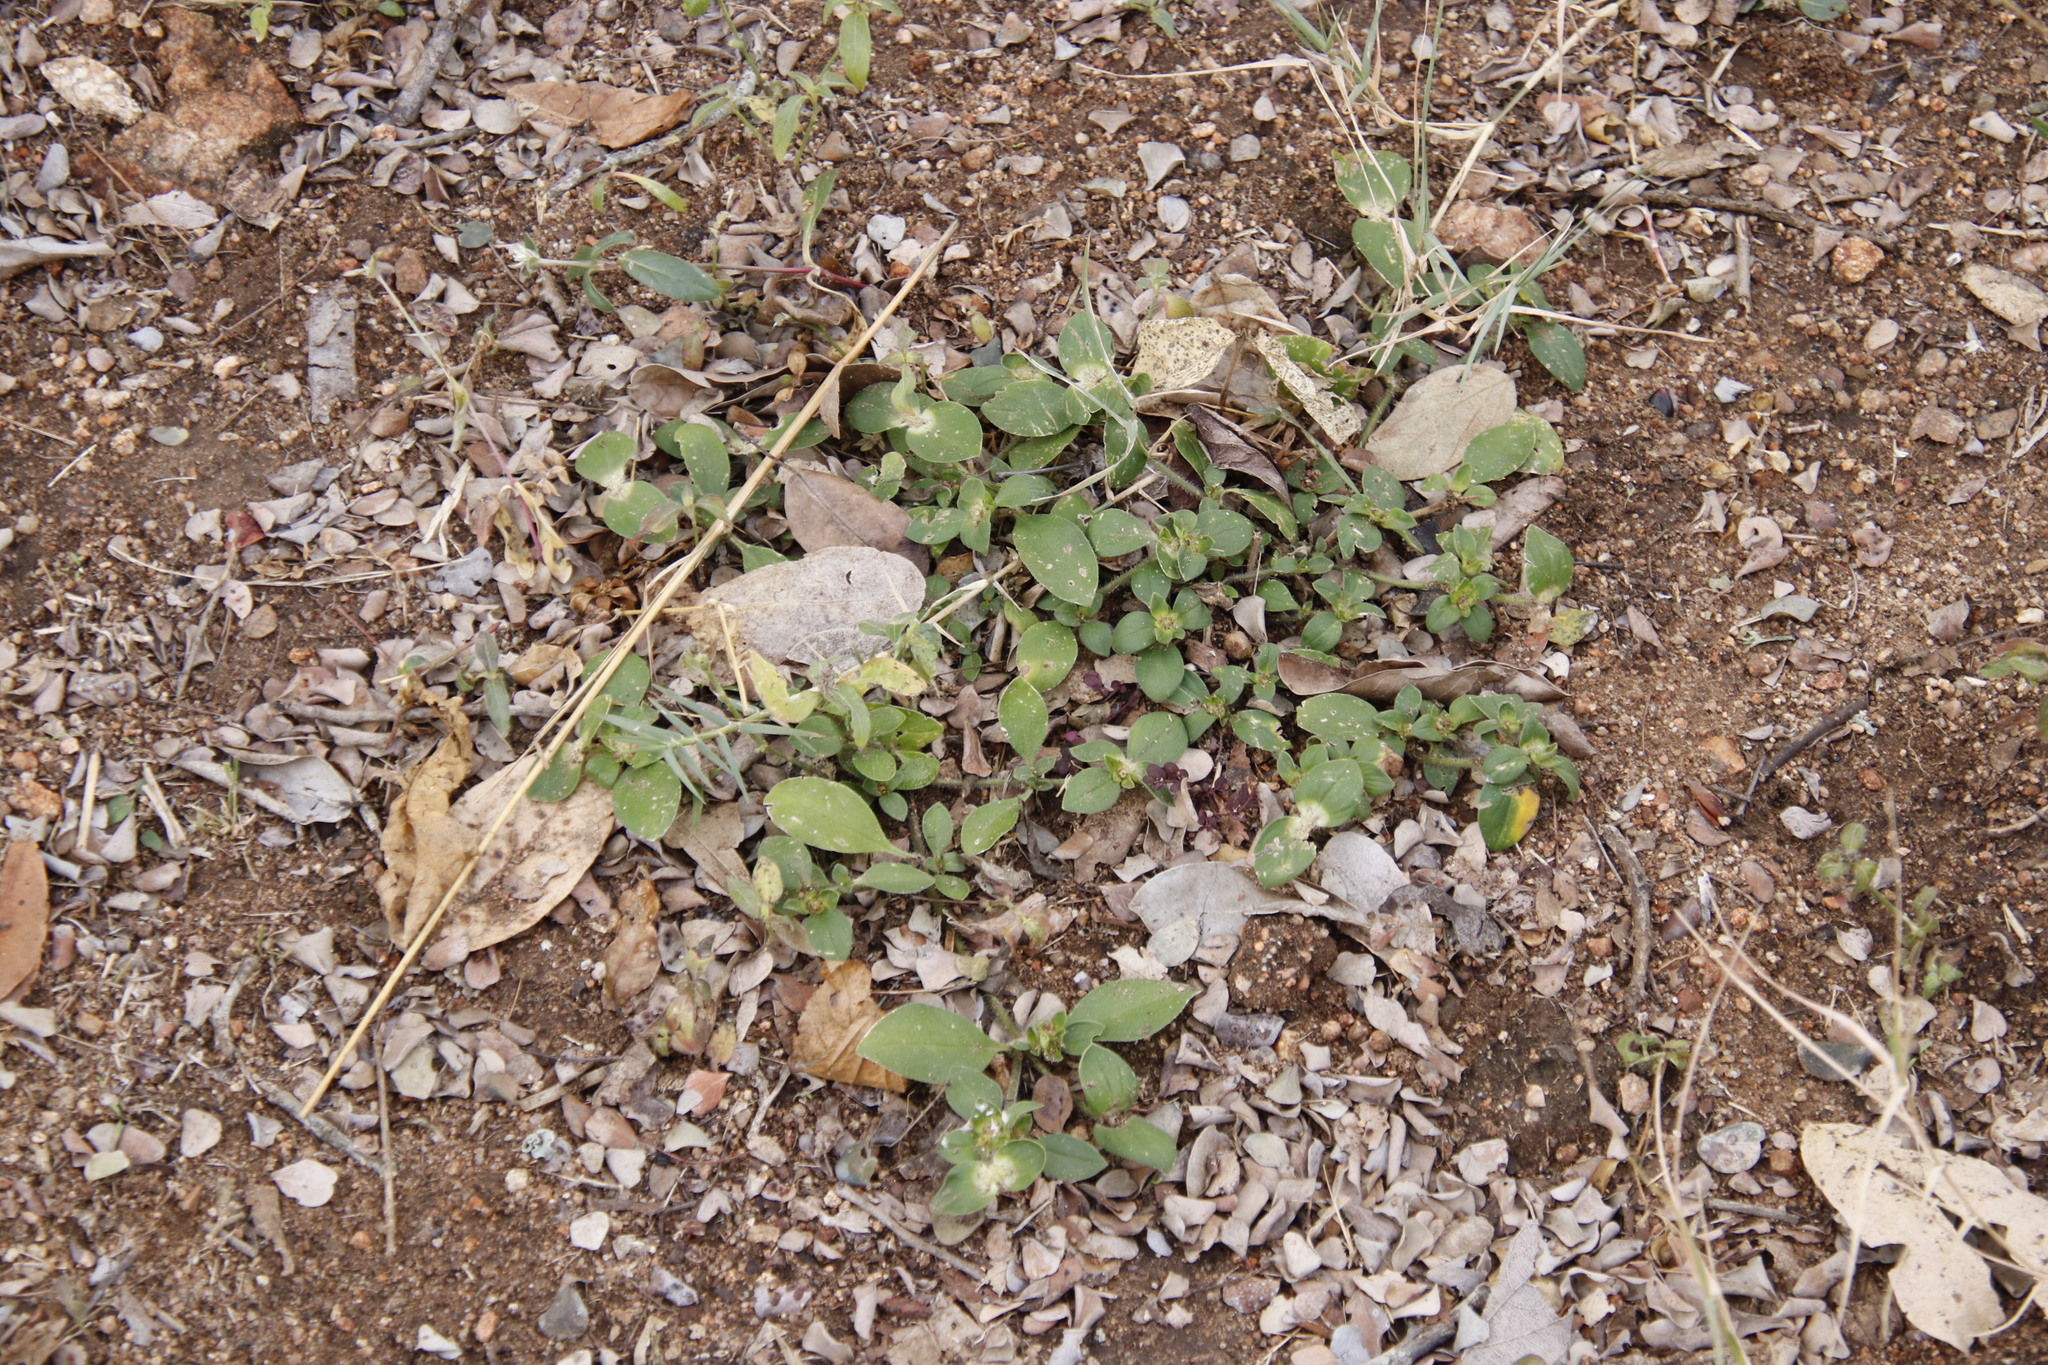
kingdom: Plantae
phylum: Tracheophyta
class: Magnoliopsida
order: Gentianales
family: Rubiaceae
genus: Richardia
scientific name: Richardia brasiliensis
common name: Tropical mexican clover
